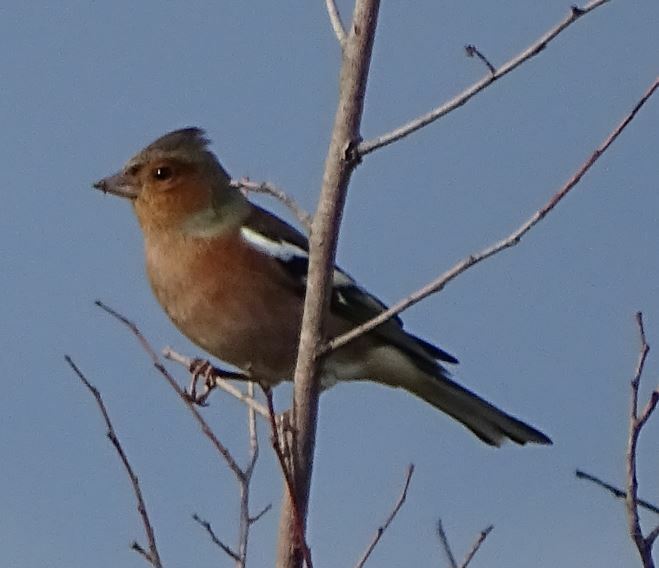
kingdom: Animalia
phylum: Chordata
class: Aves
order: Passeriformes
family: Fringillidae
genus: Fringilla
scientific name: Fringilla coelebs
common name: Common chaffinch
